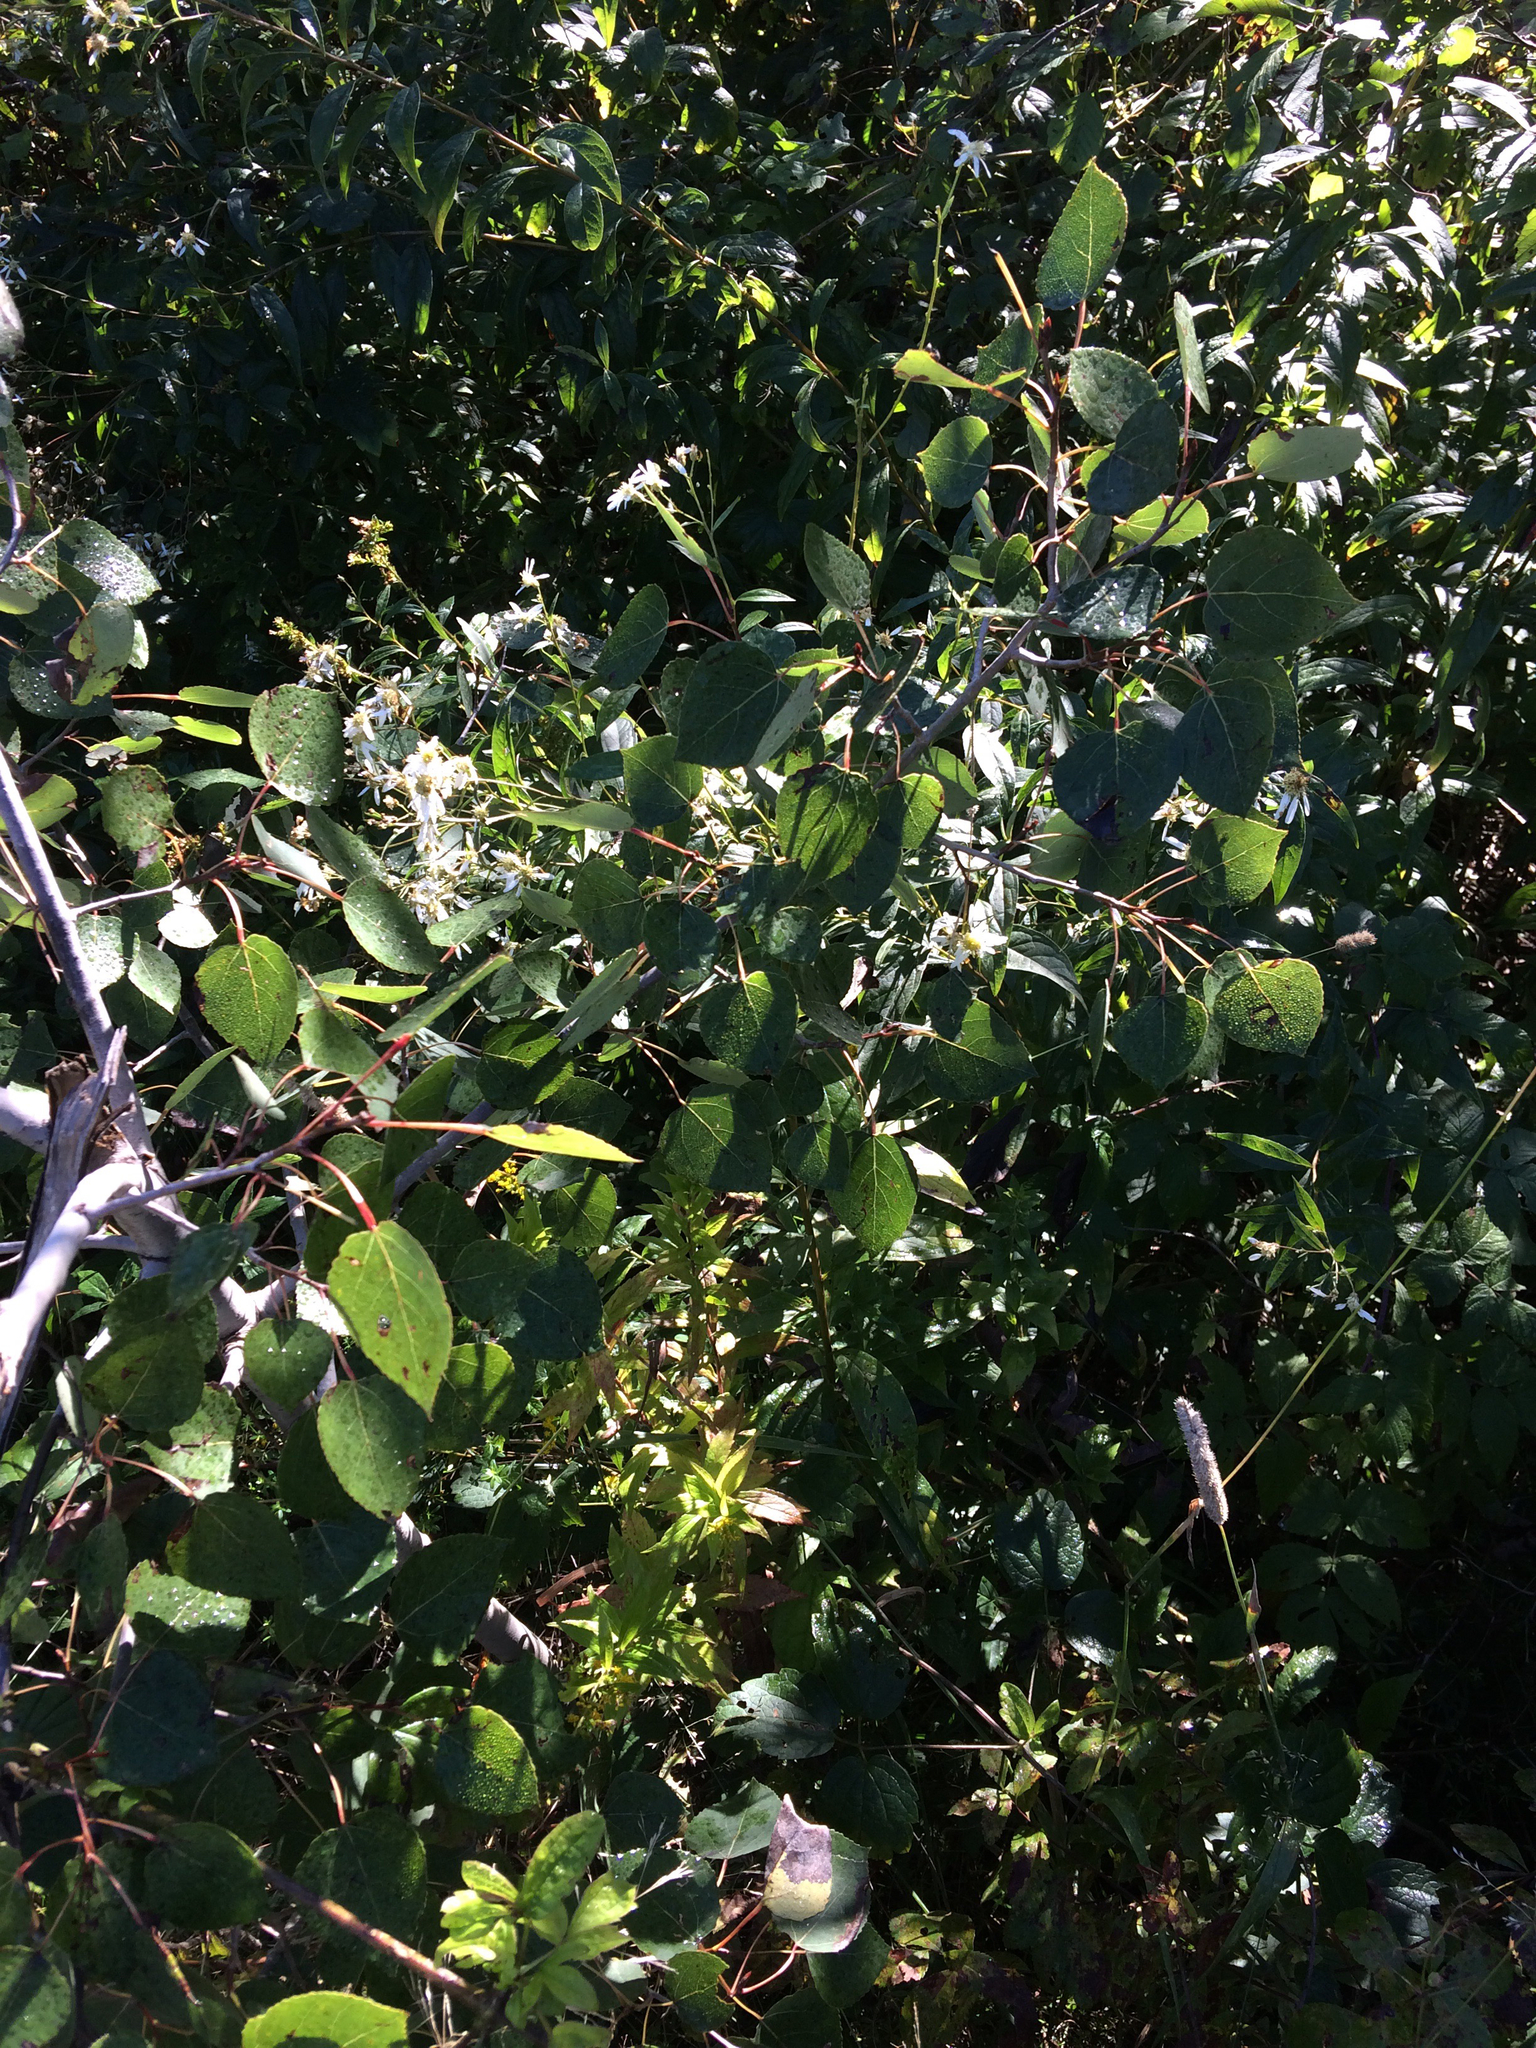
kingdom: Plantae
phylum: Tracheophyta
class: Magnoliopsida
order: Malpighiales
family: Salicaceae
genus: Populus
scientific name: Populus tremuloides
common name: Quaking aspen
